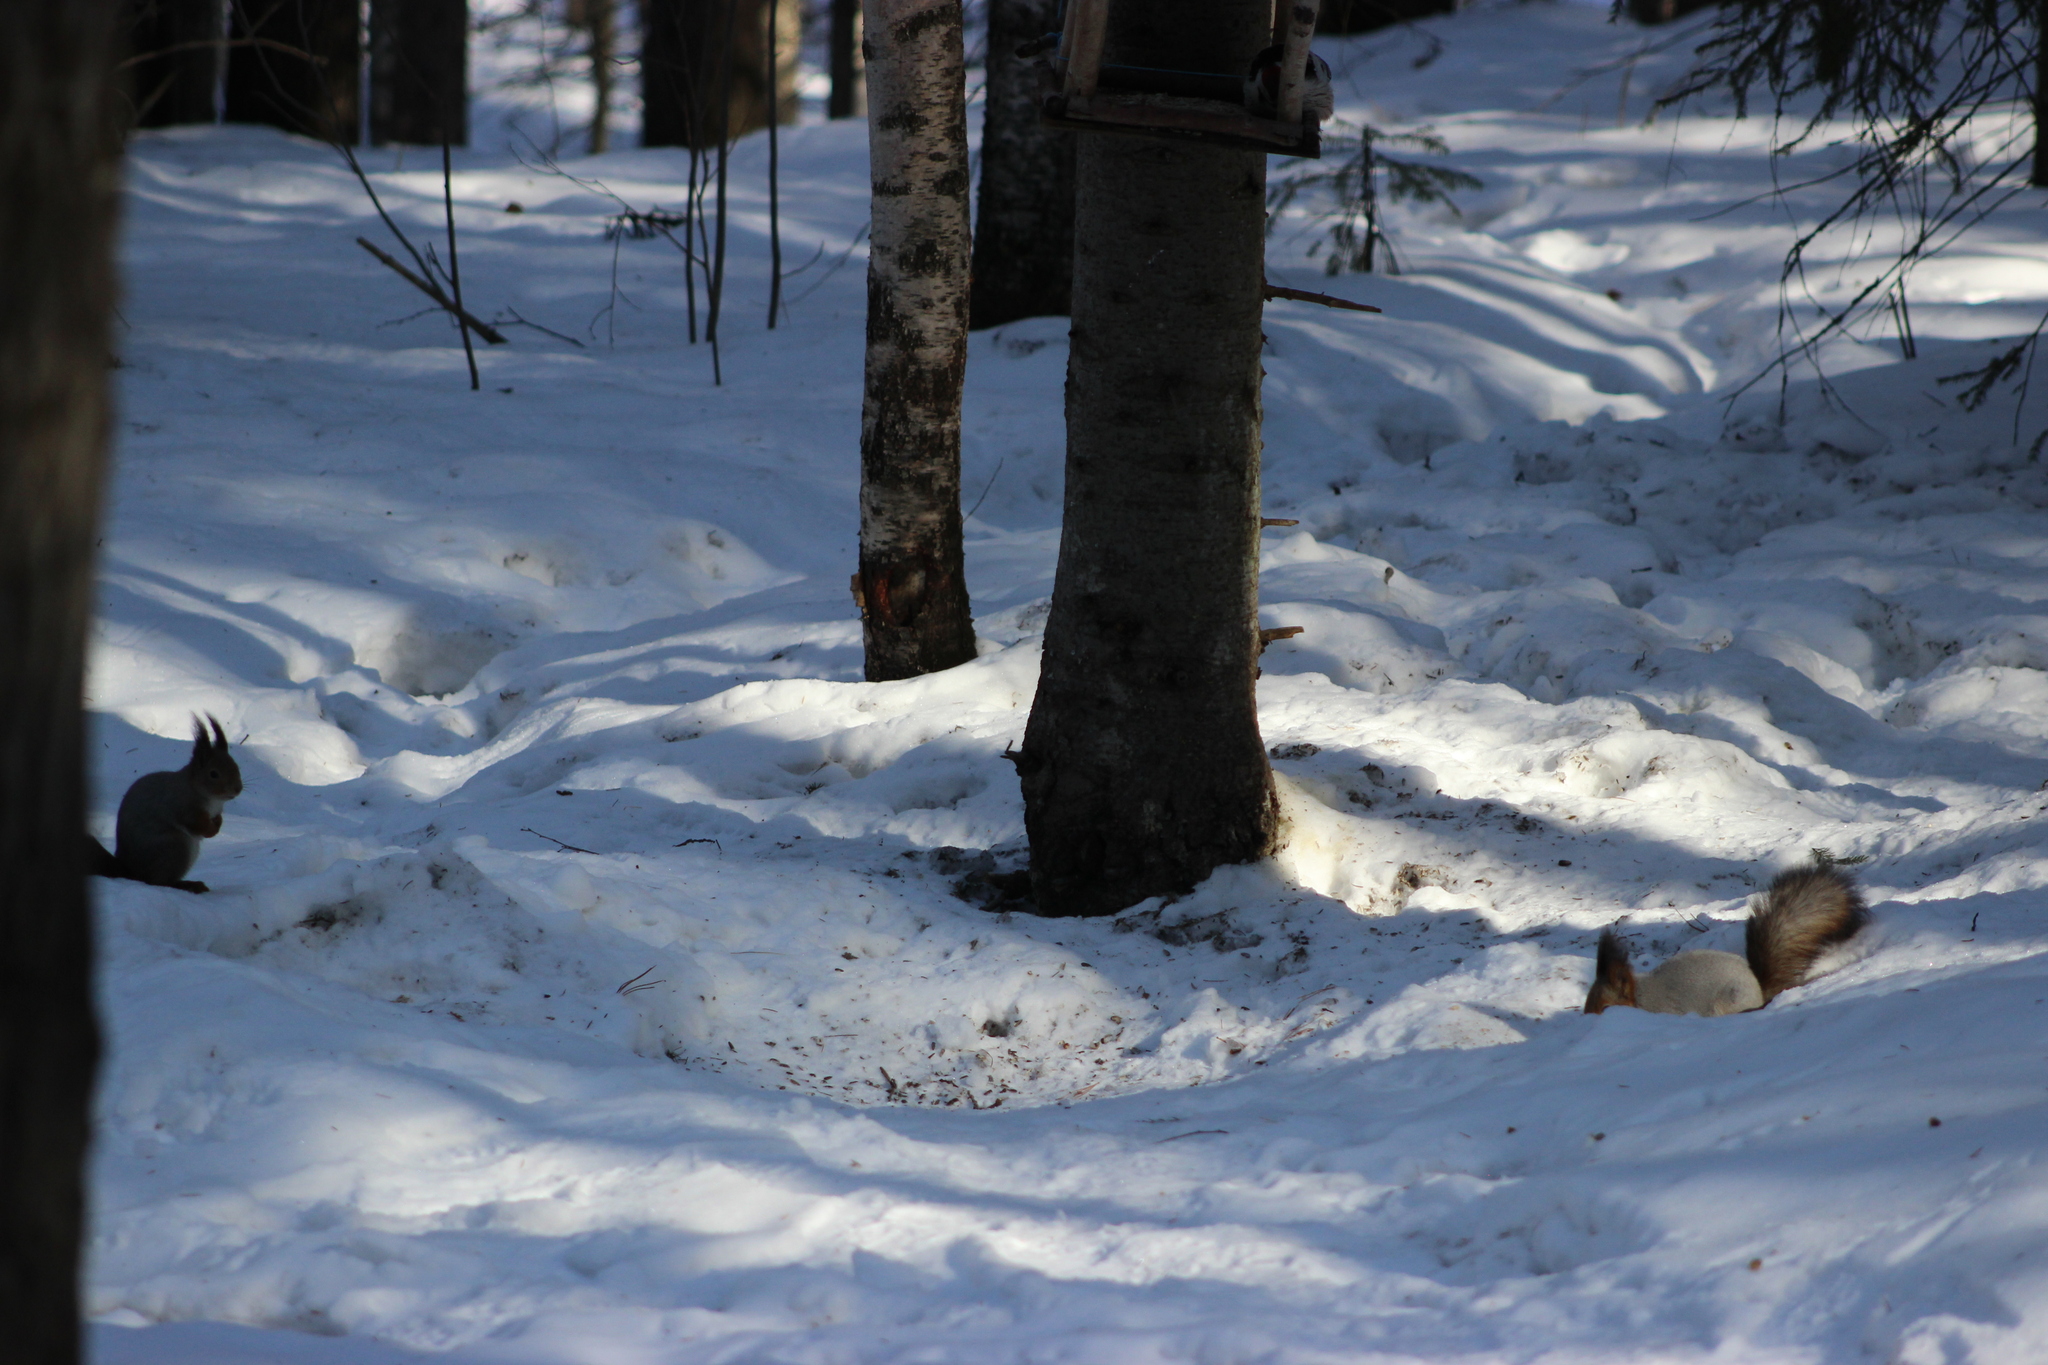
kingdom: Animalia
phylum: Chordata
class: Mammalia
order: Rodentia
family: Sciuridae
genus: Sciurus
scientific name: Sciurus vulgaris
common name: Eurasian red squirrel
